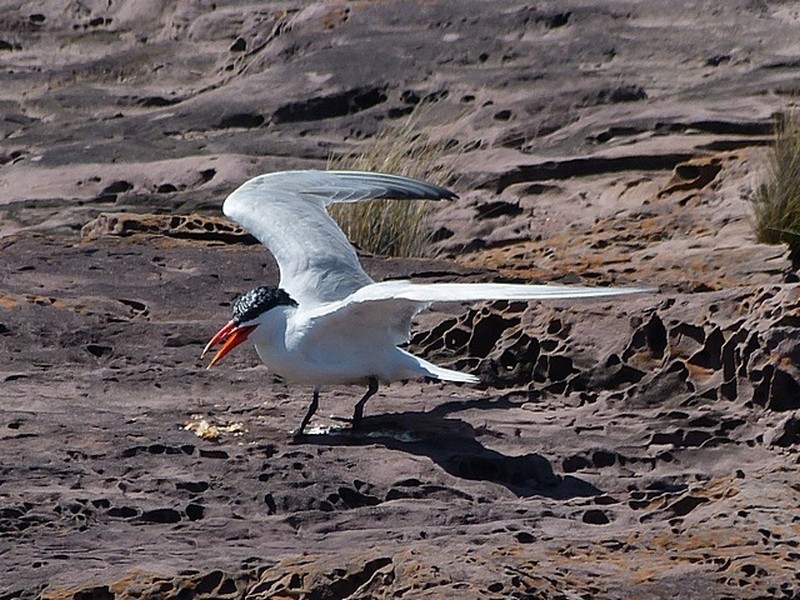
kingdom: Animalia
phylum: Chordata
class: Aves
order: Charadriiformes
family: Laridae
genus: Hydroprogne
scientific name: Hydroprogne caspia
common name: Caspian tern
